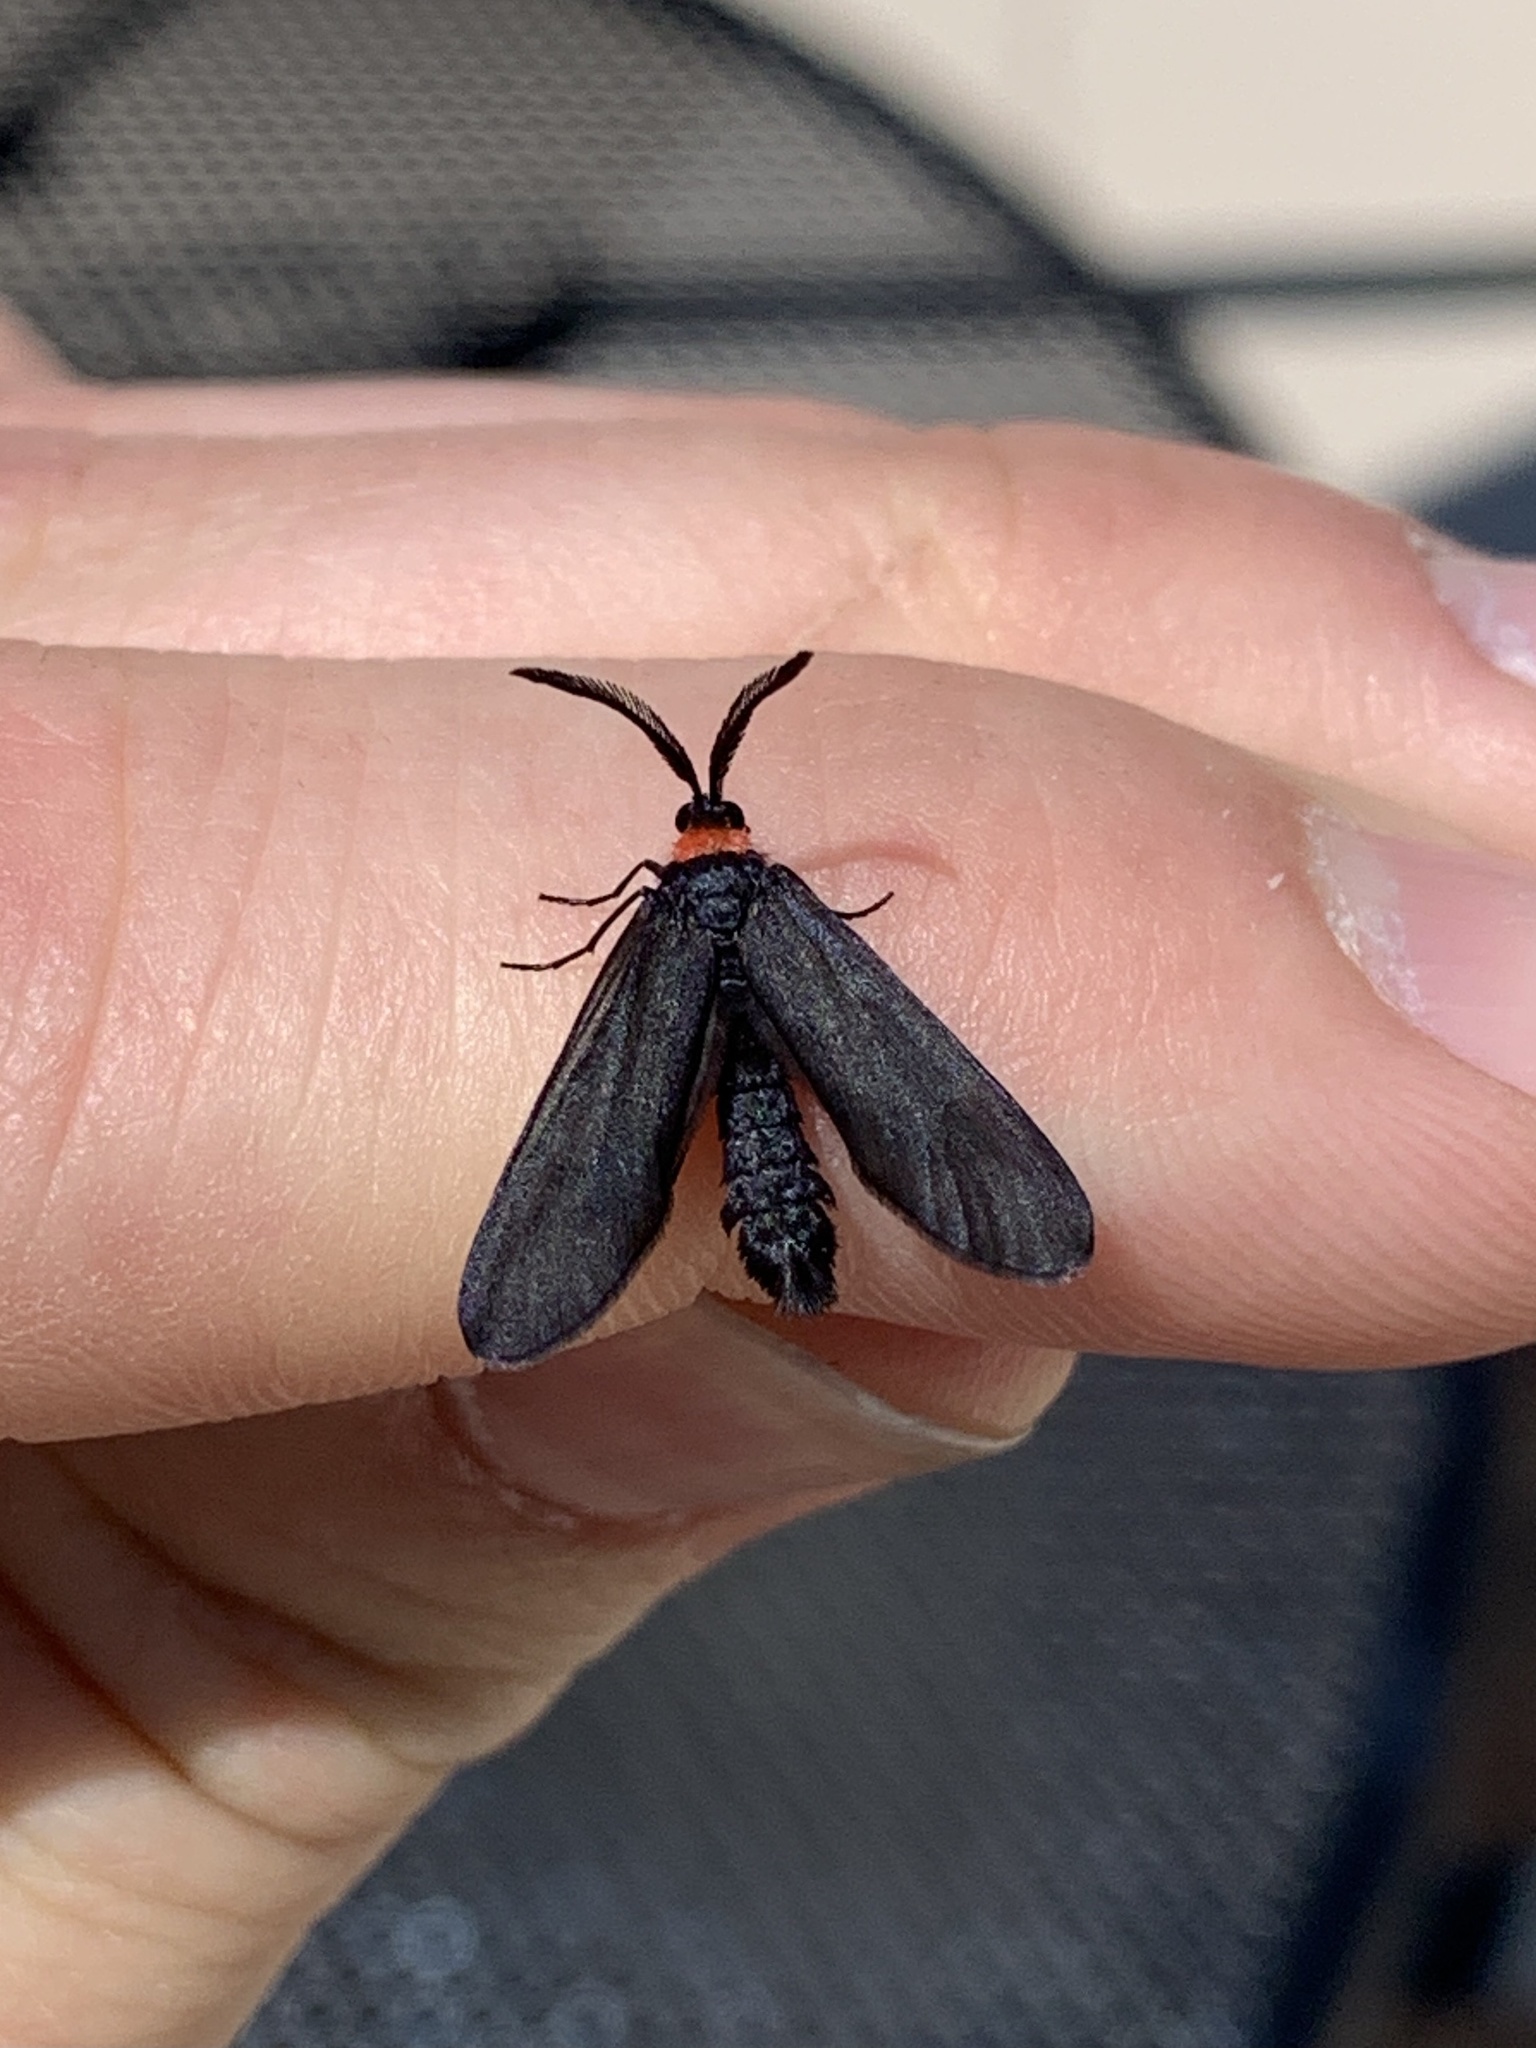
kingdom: Animalia
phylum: Arthropoda
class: Insecta
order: Lepidoptera
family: Zygaenidae
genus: Harrisina
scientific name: Harrisina americana
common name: Grapeleaf skeletonizer moth
